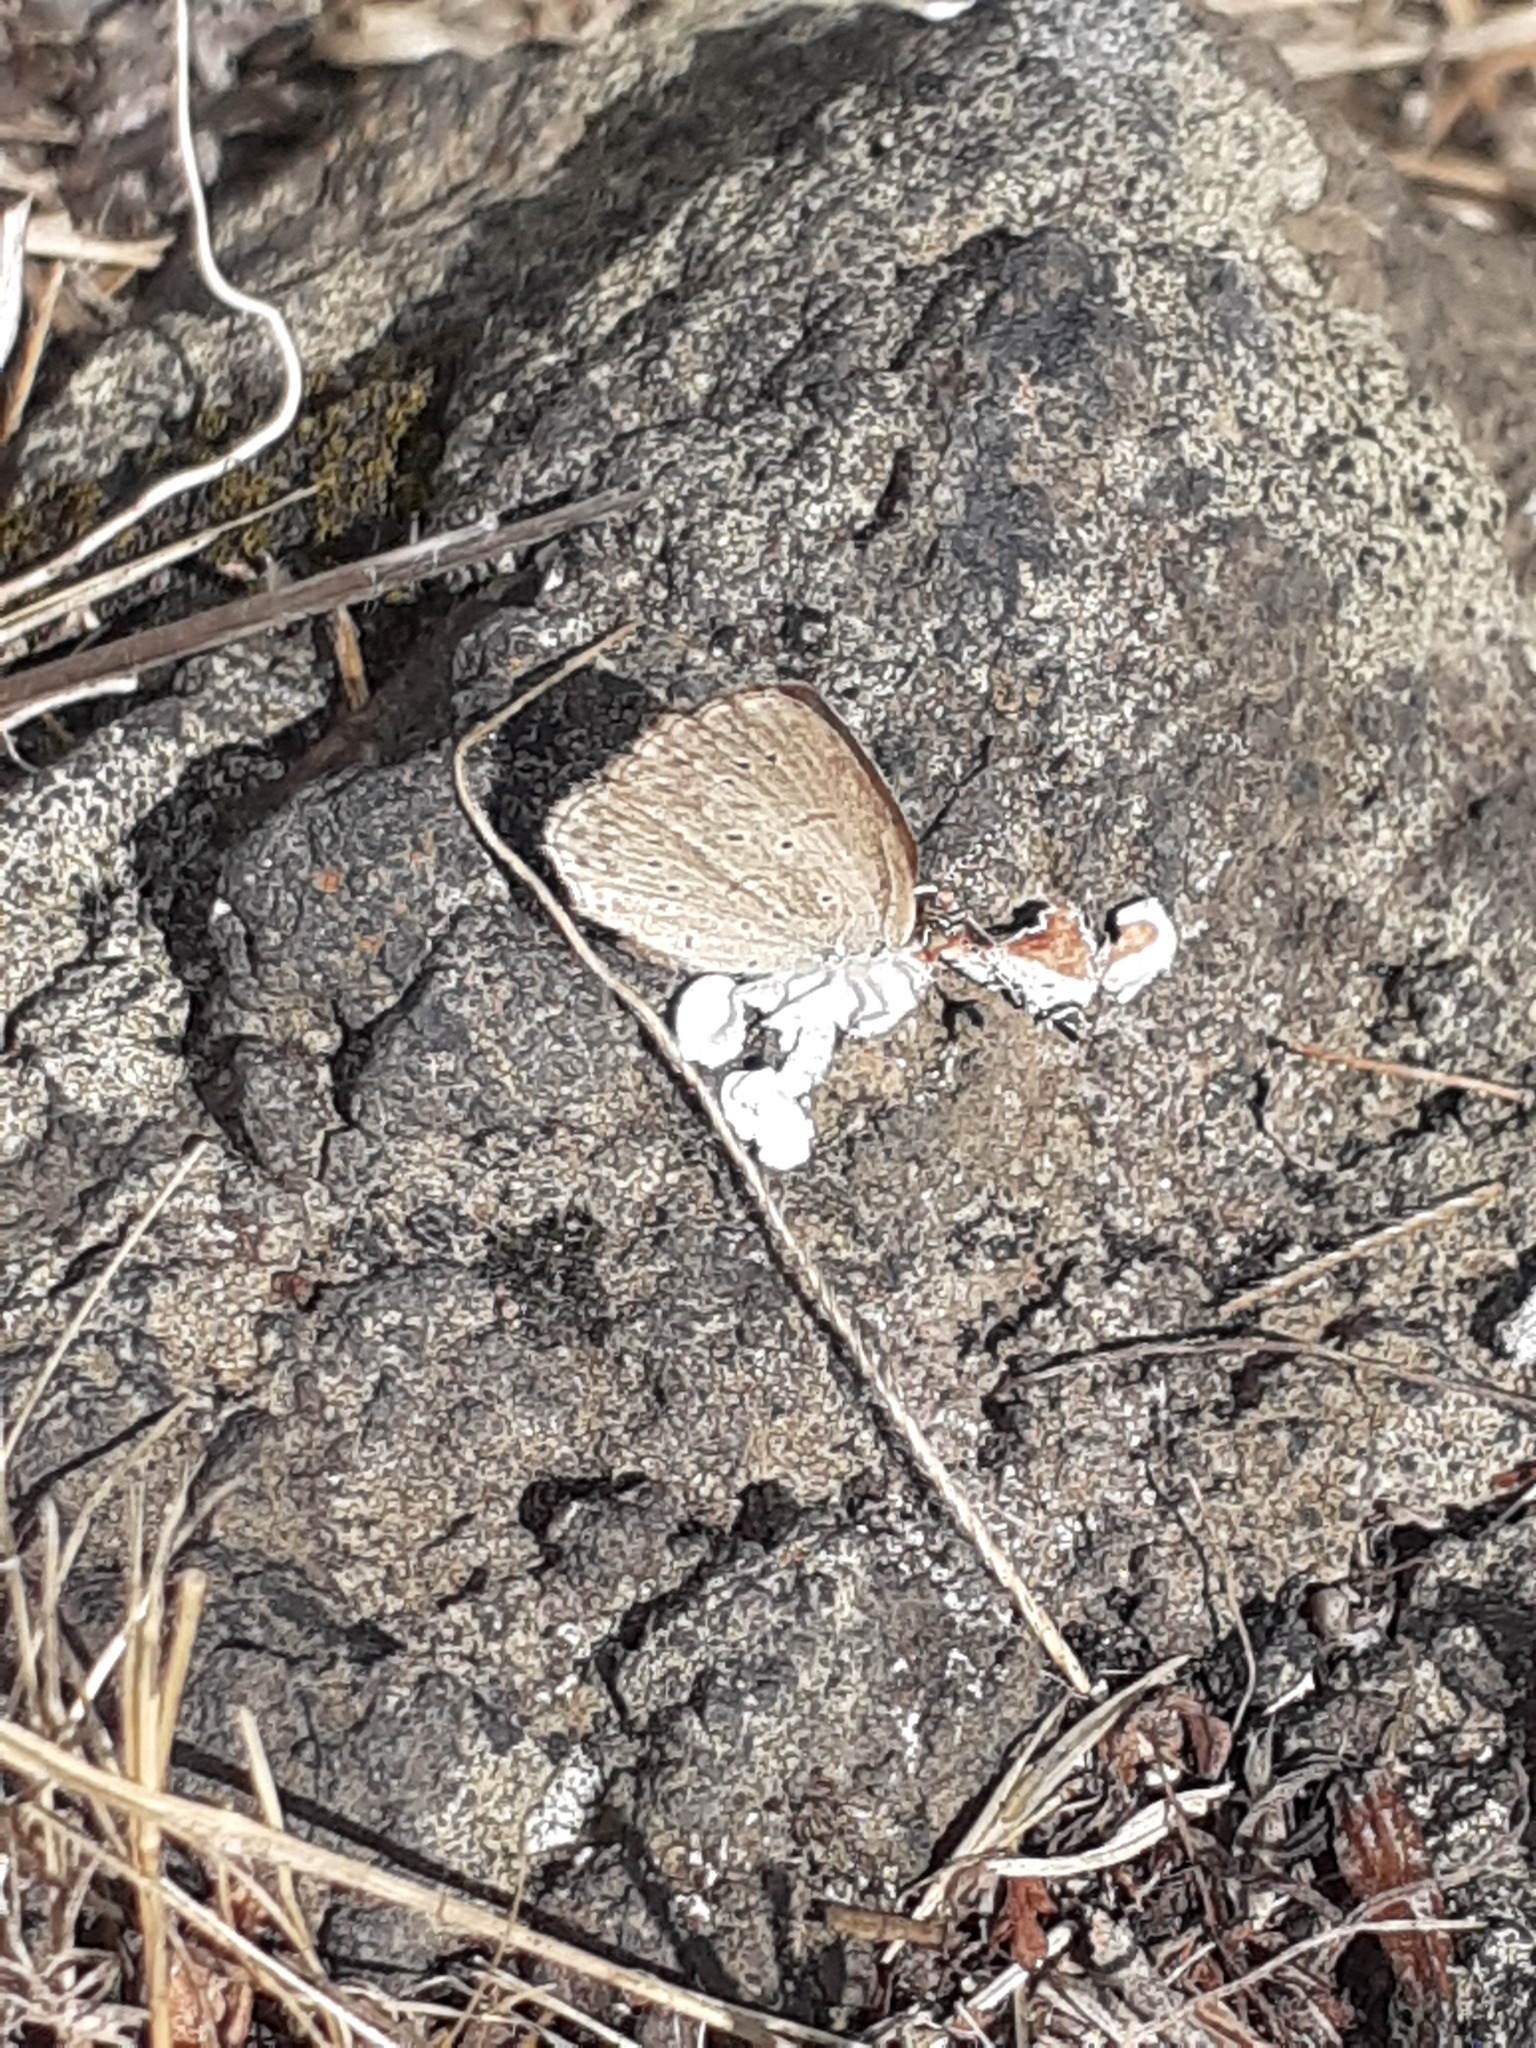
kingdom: Animalia
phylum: Arthropoda
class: Insecta
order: Lepidoptera
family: Lycaenidae
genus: Zizeeria
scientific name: Zizeeria knysna
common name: African grass blue
